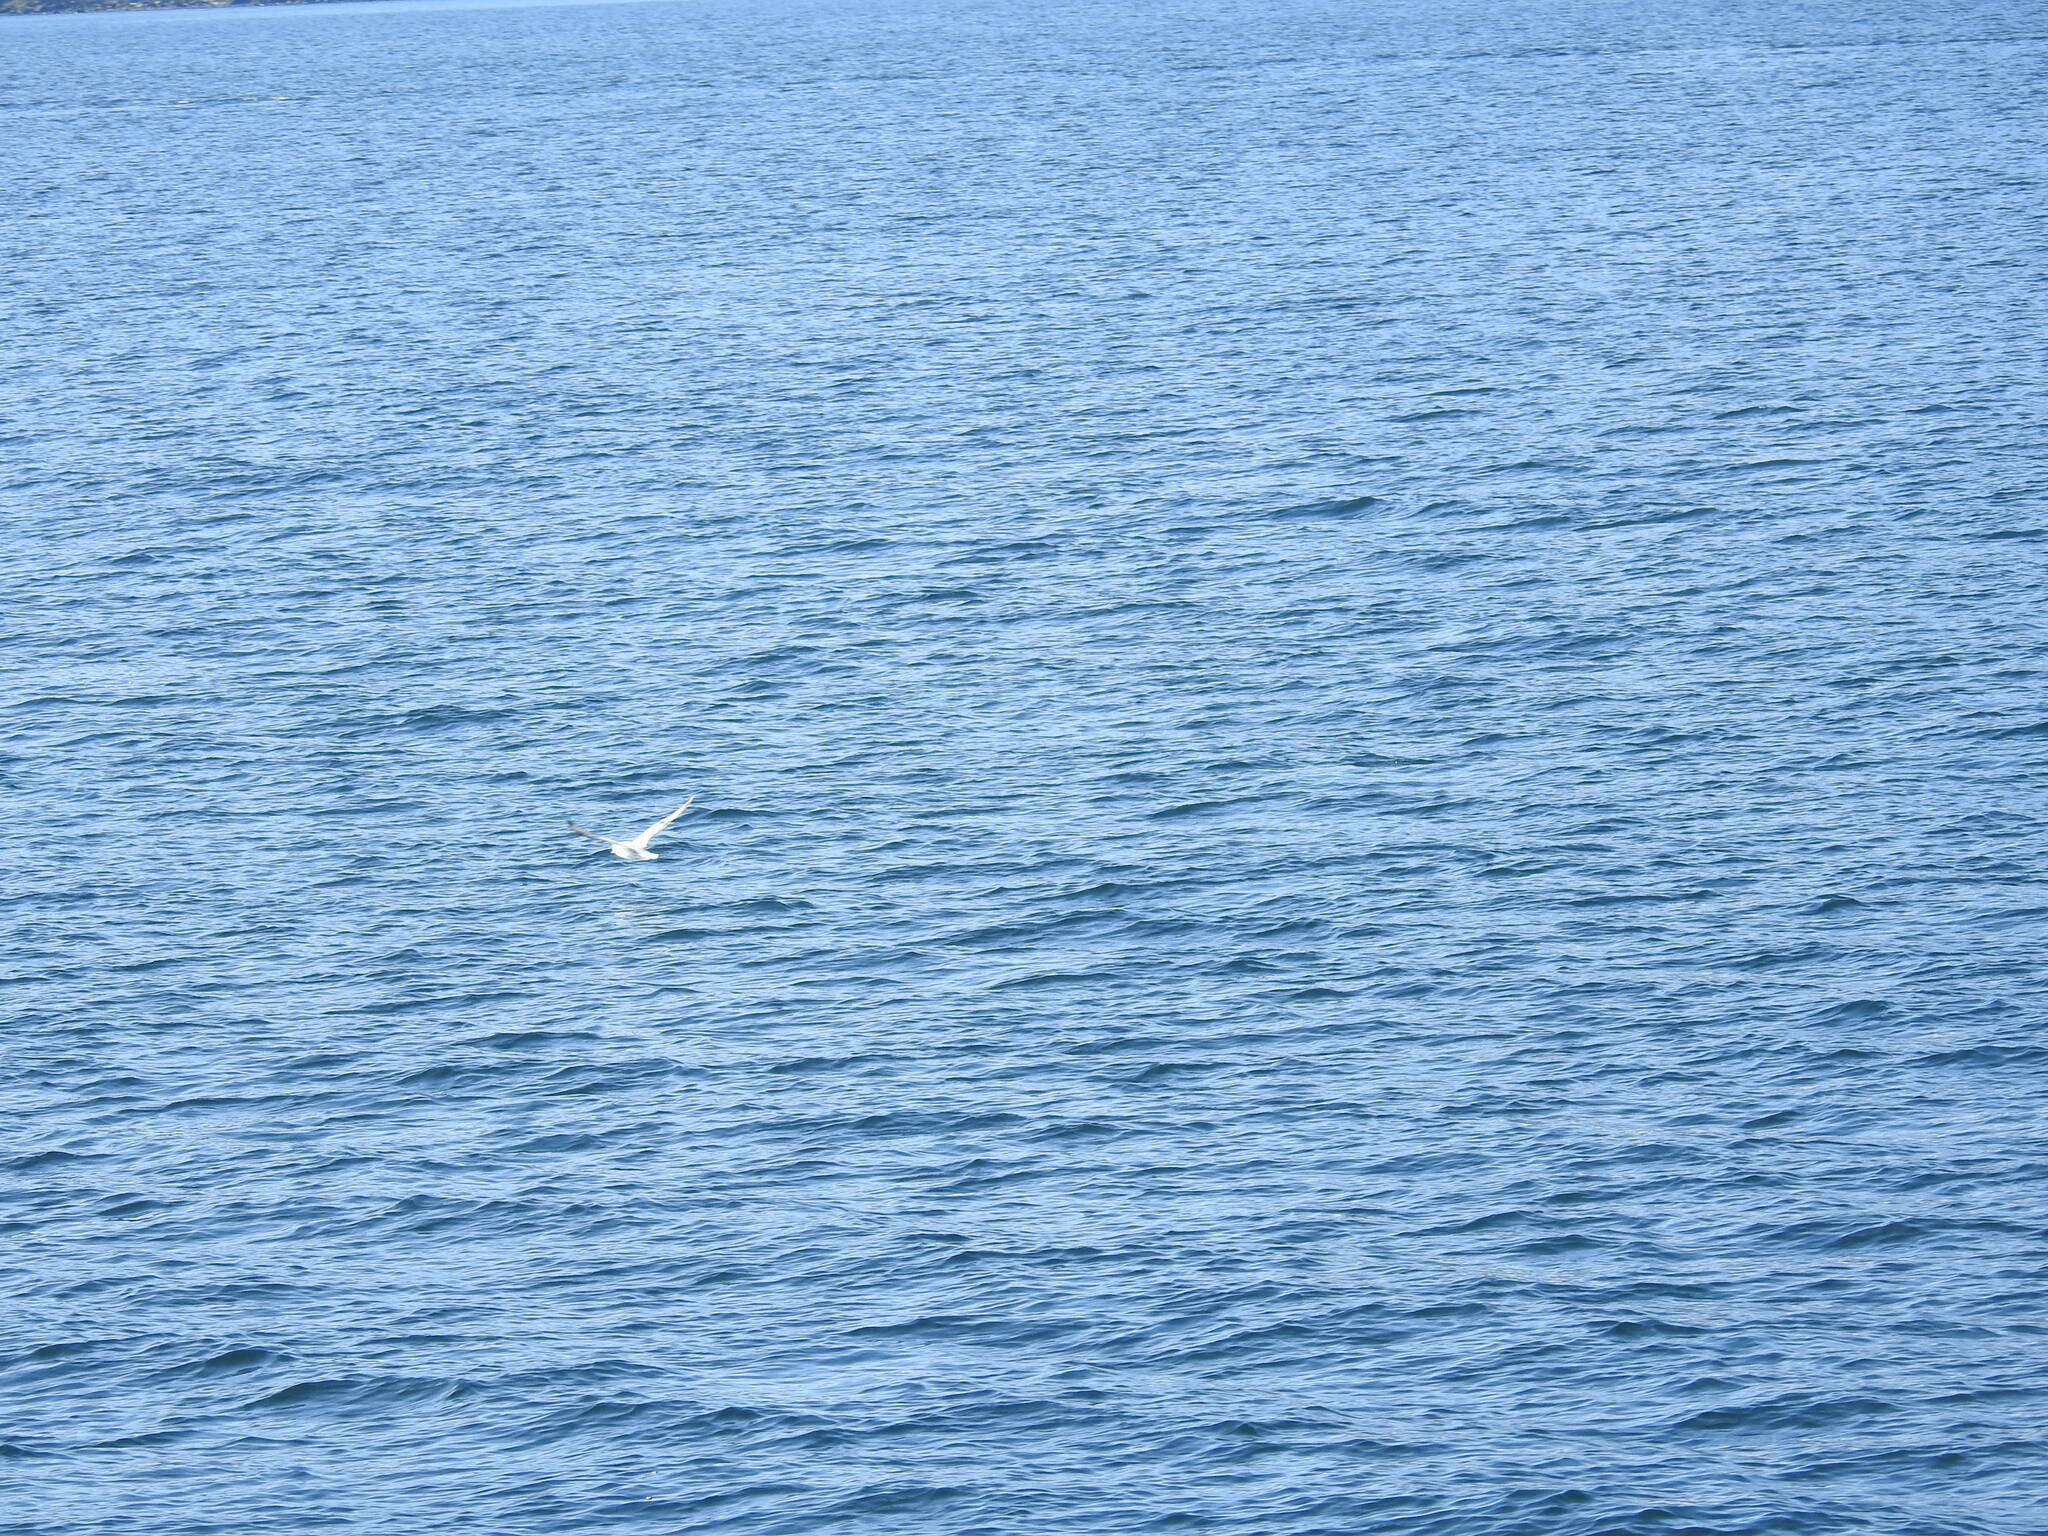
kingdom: Animalia
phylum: Chordata
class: Aves
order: Procellariiformes
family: Procellariidae
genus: Fulmarus
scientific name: Fulmarus glacialoides
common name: Southern fulmar
